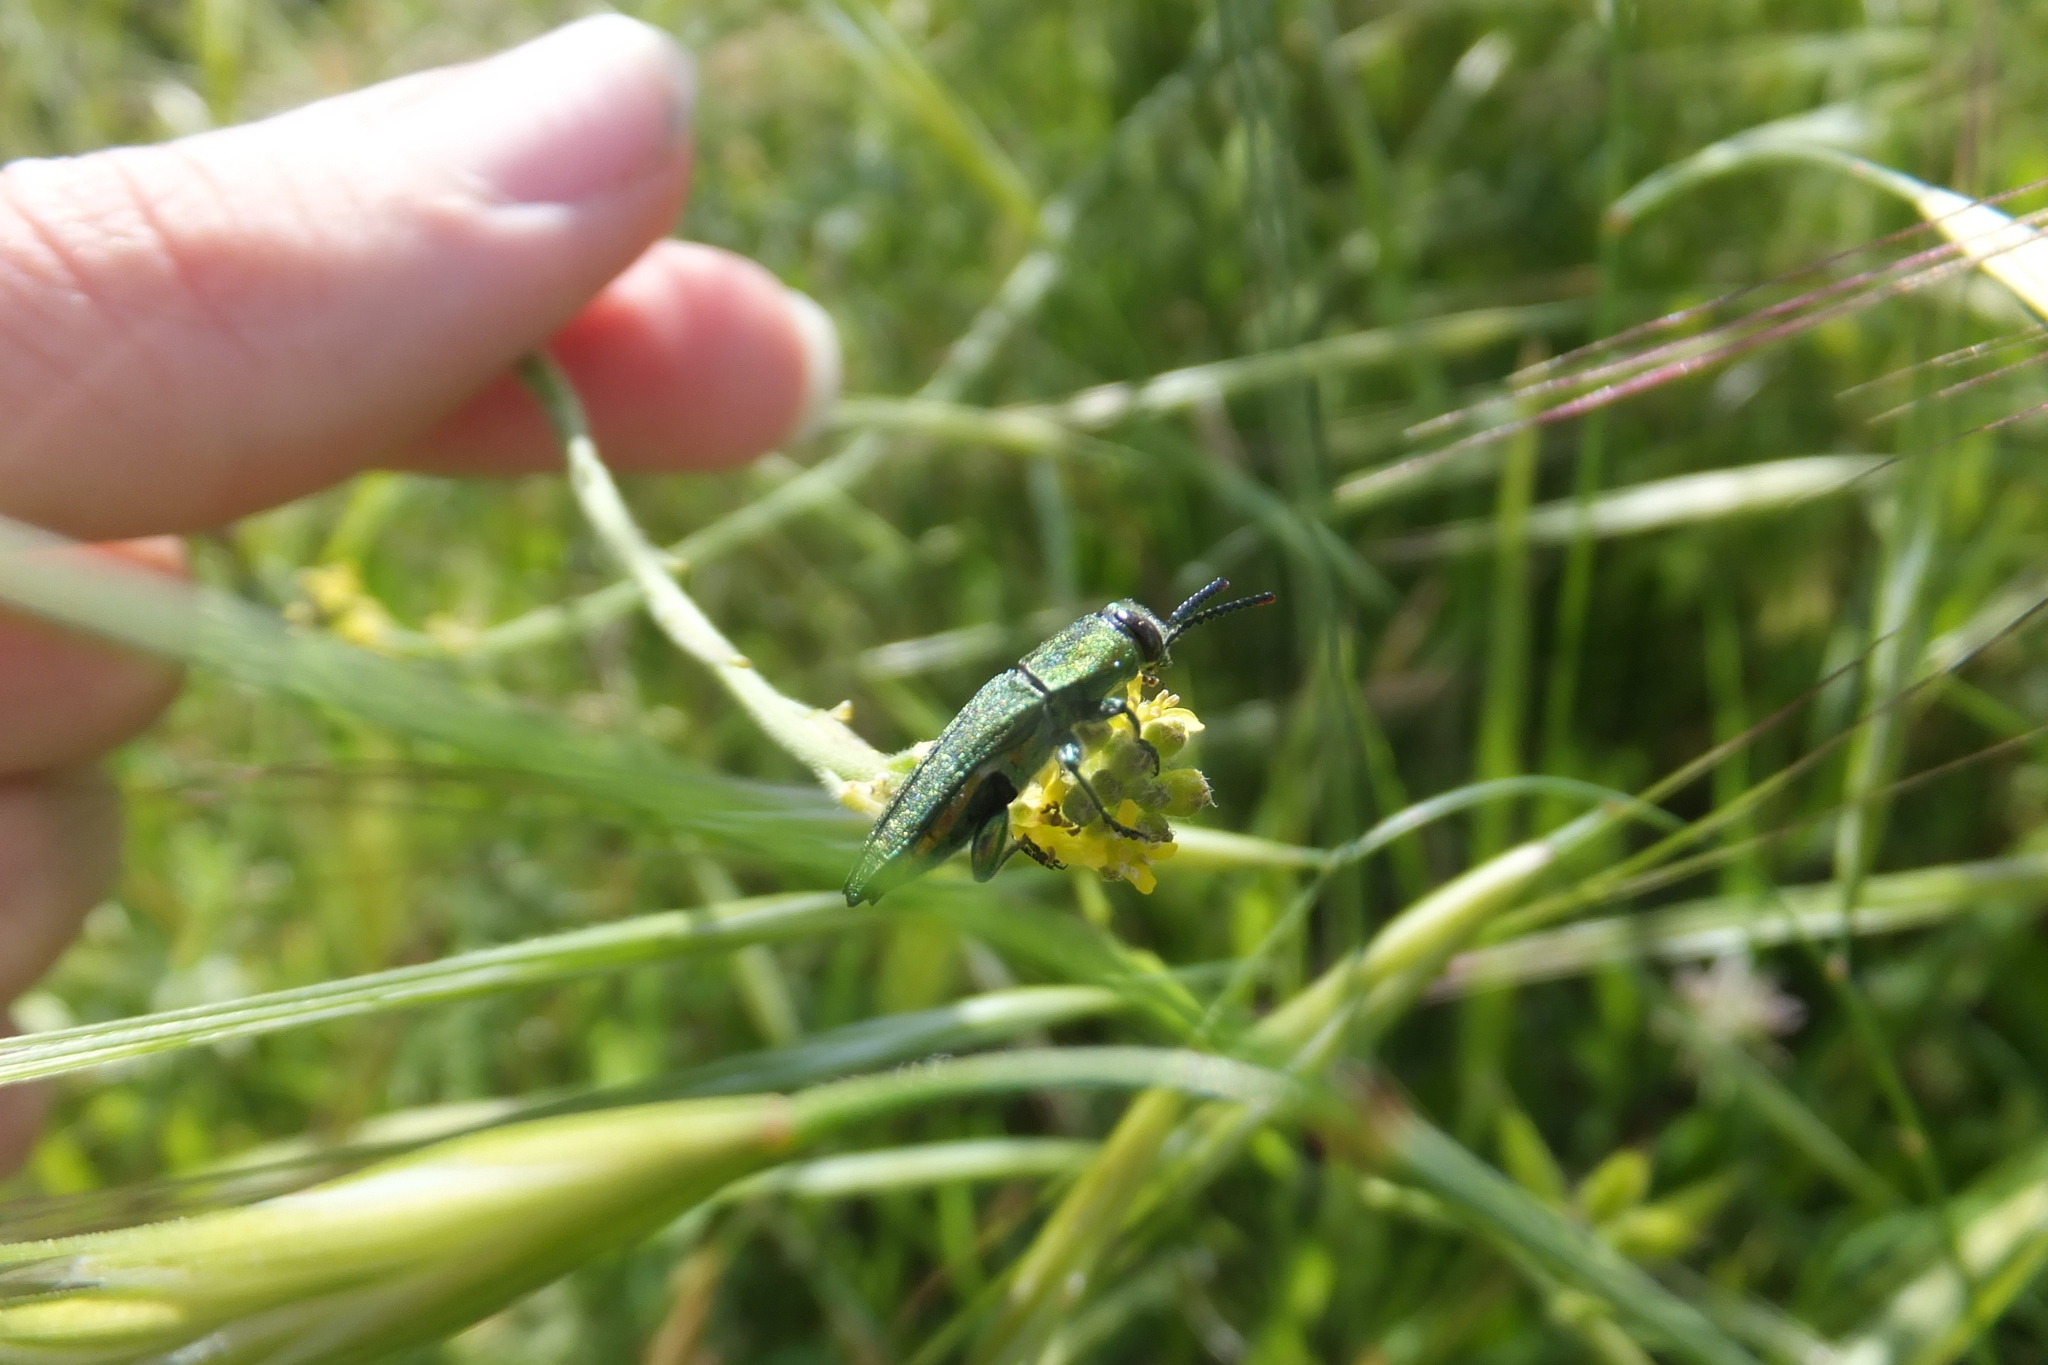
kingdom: Animalia
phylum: Arthropoda
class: Insecta
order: Coleoptera
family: Buprestidae
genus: Anthaxia
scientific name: Anthaxia hungarica
